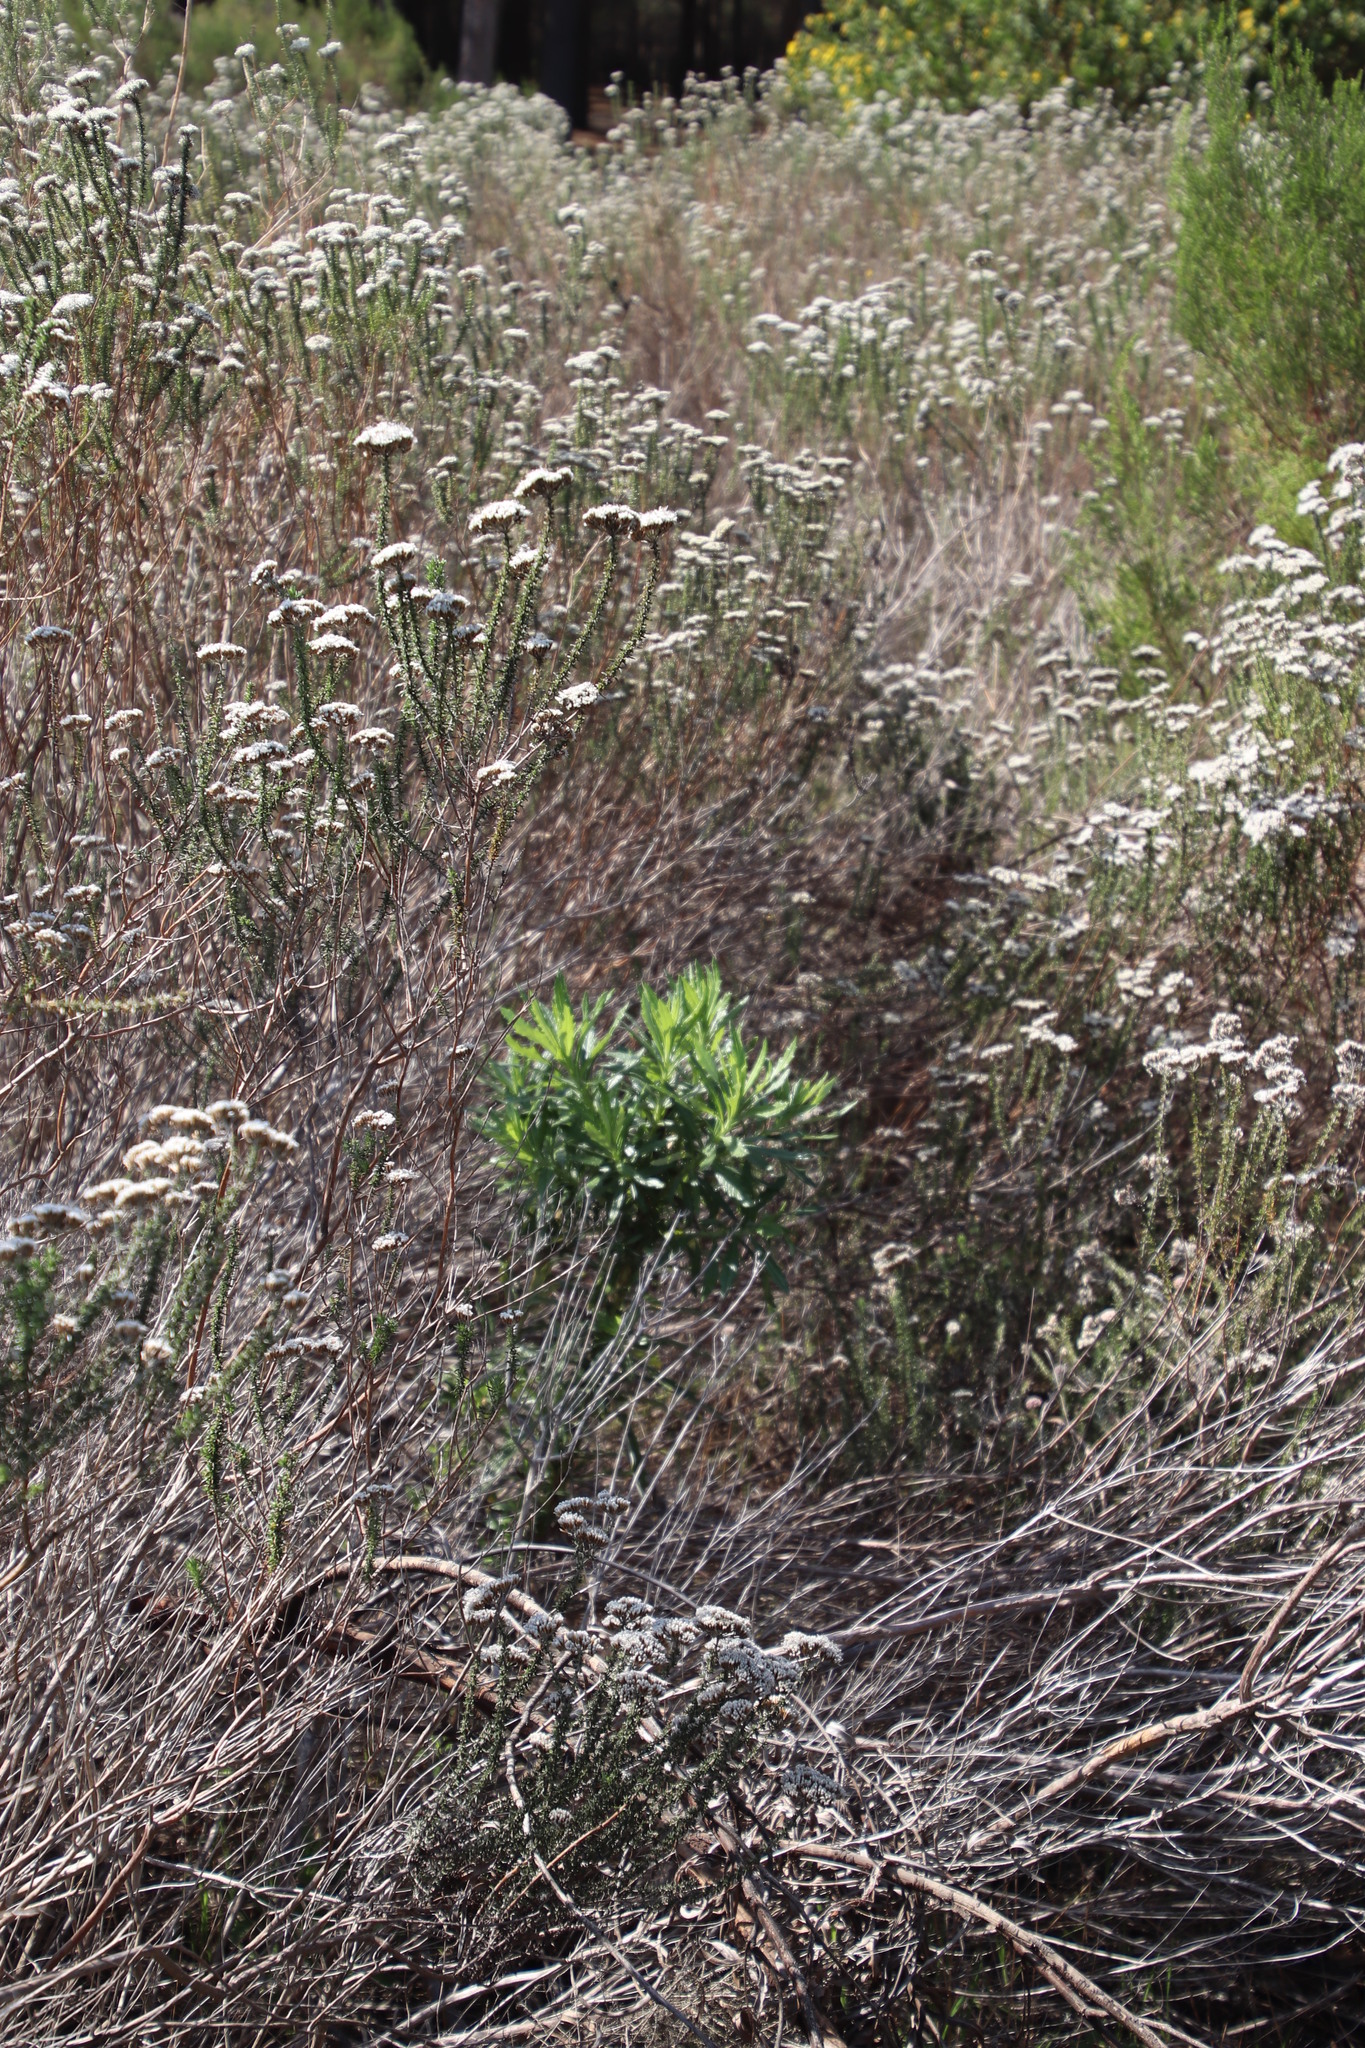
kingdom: Plantae
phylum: Tracheophyta
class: Magnoliopsida
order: Asterales
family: Asteraceae
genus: Senecio
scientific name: Senecio pterophorus
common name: Shoddy ragwort
